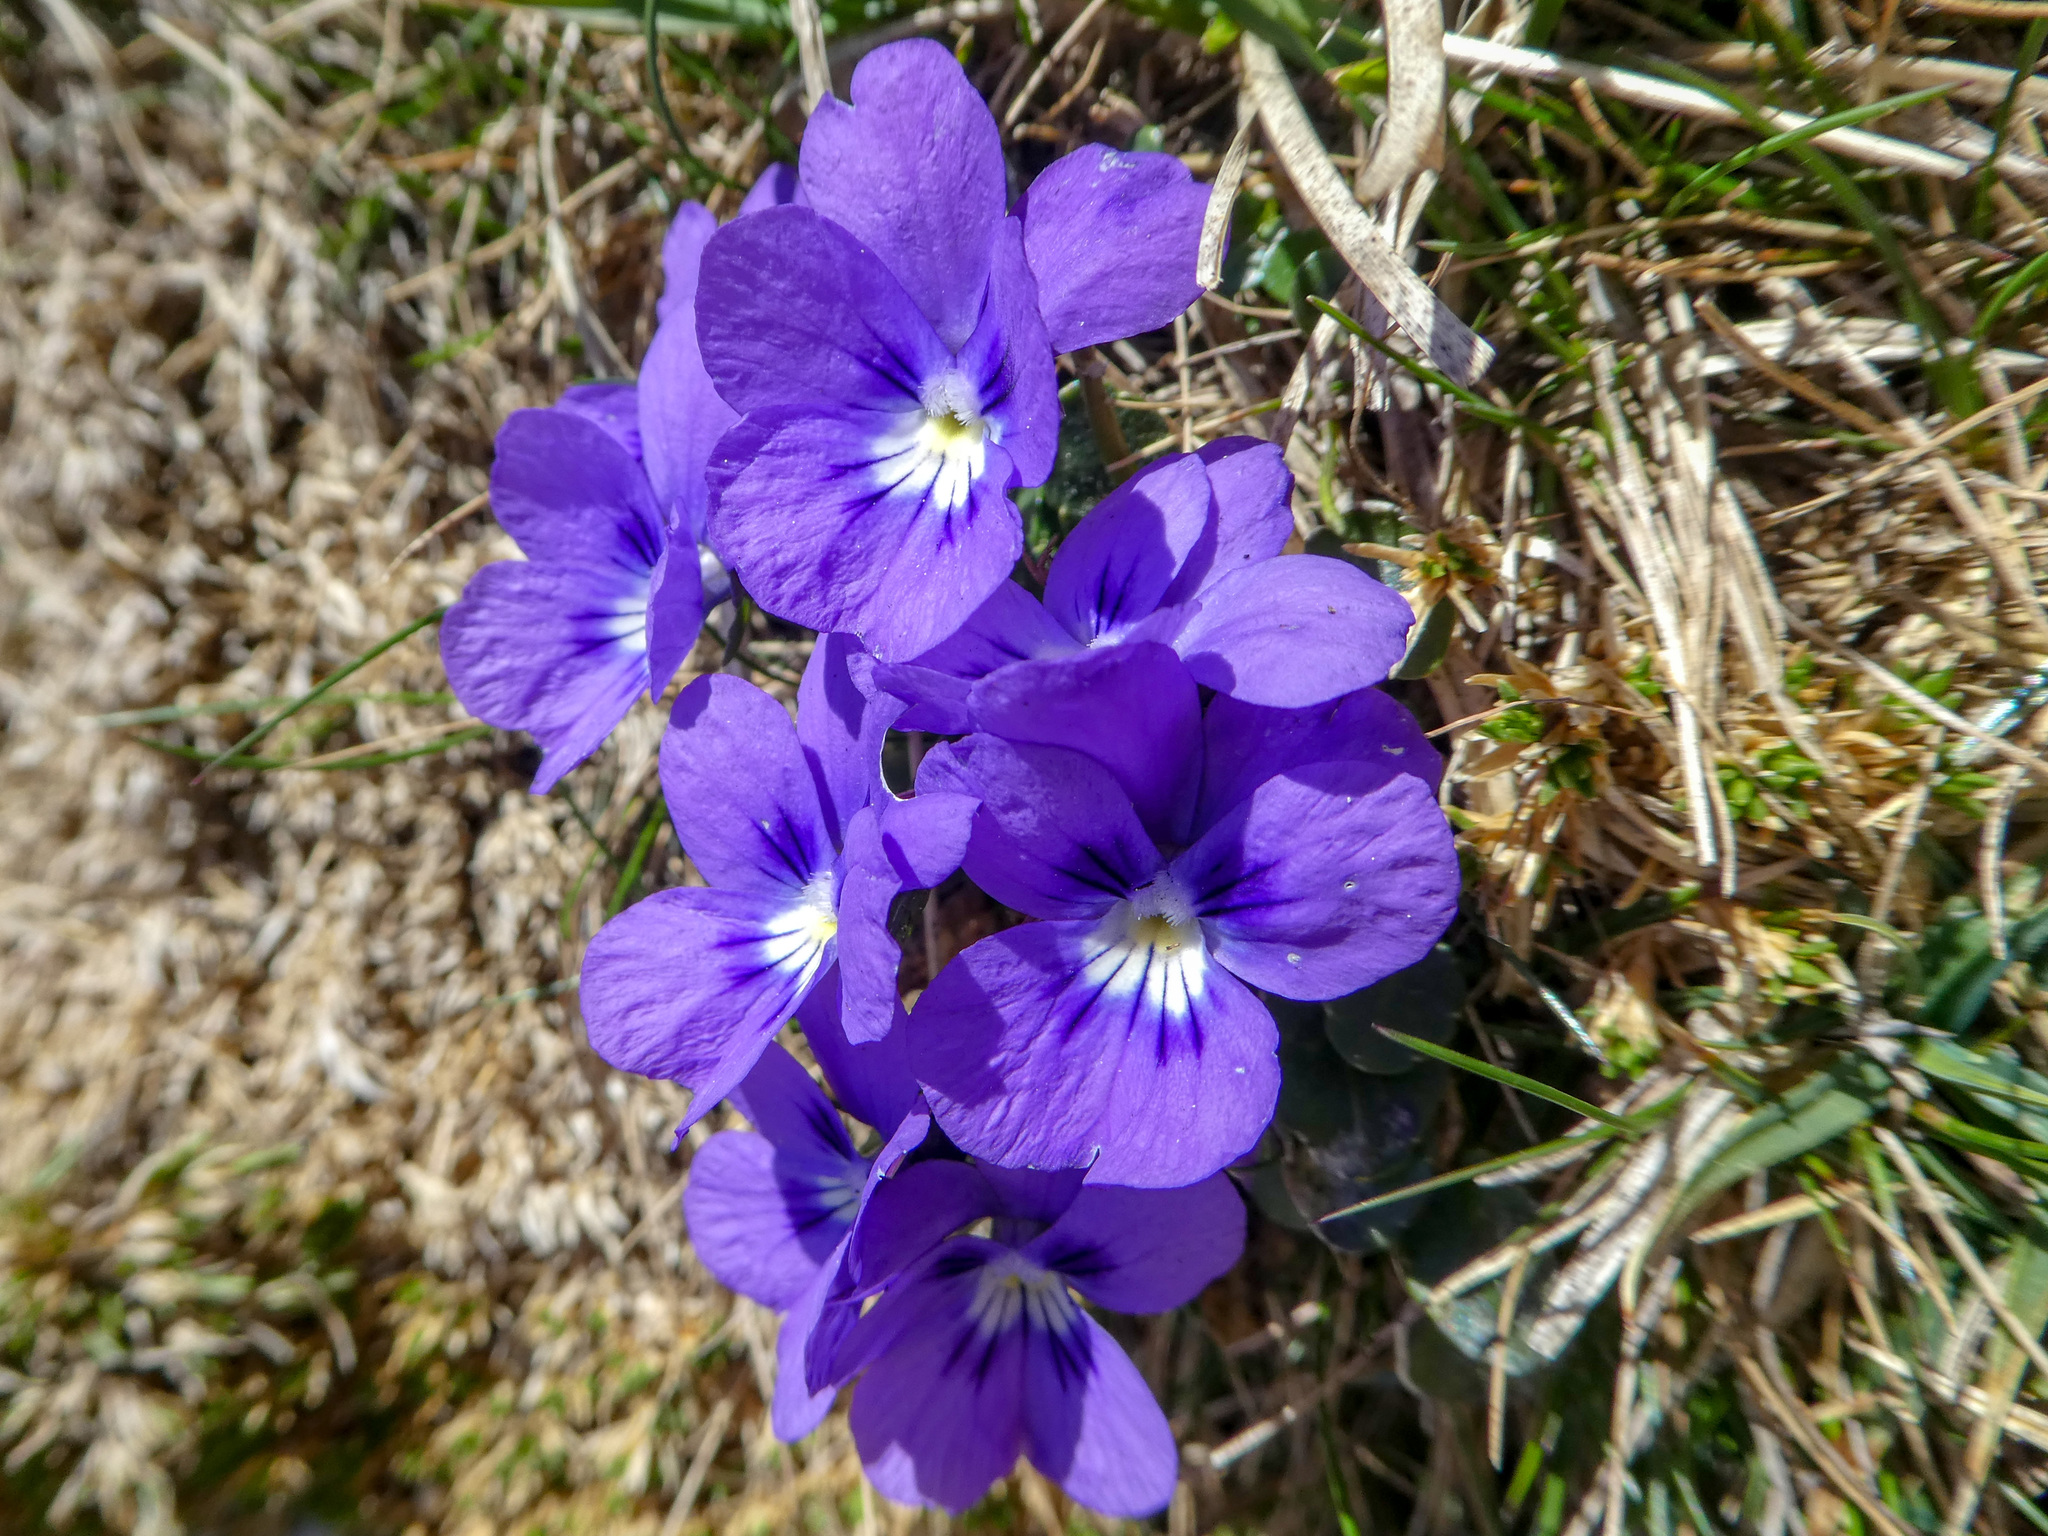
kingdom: Plantae
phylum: Tracheophyta
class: Magnoliopsida
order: Malpighiales
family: Violaceae
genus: Viola
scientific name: Viola alpina
